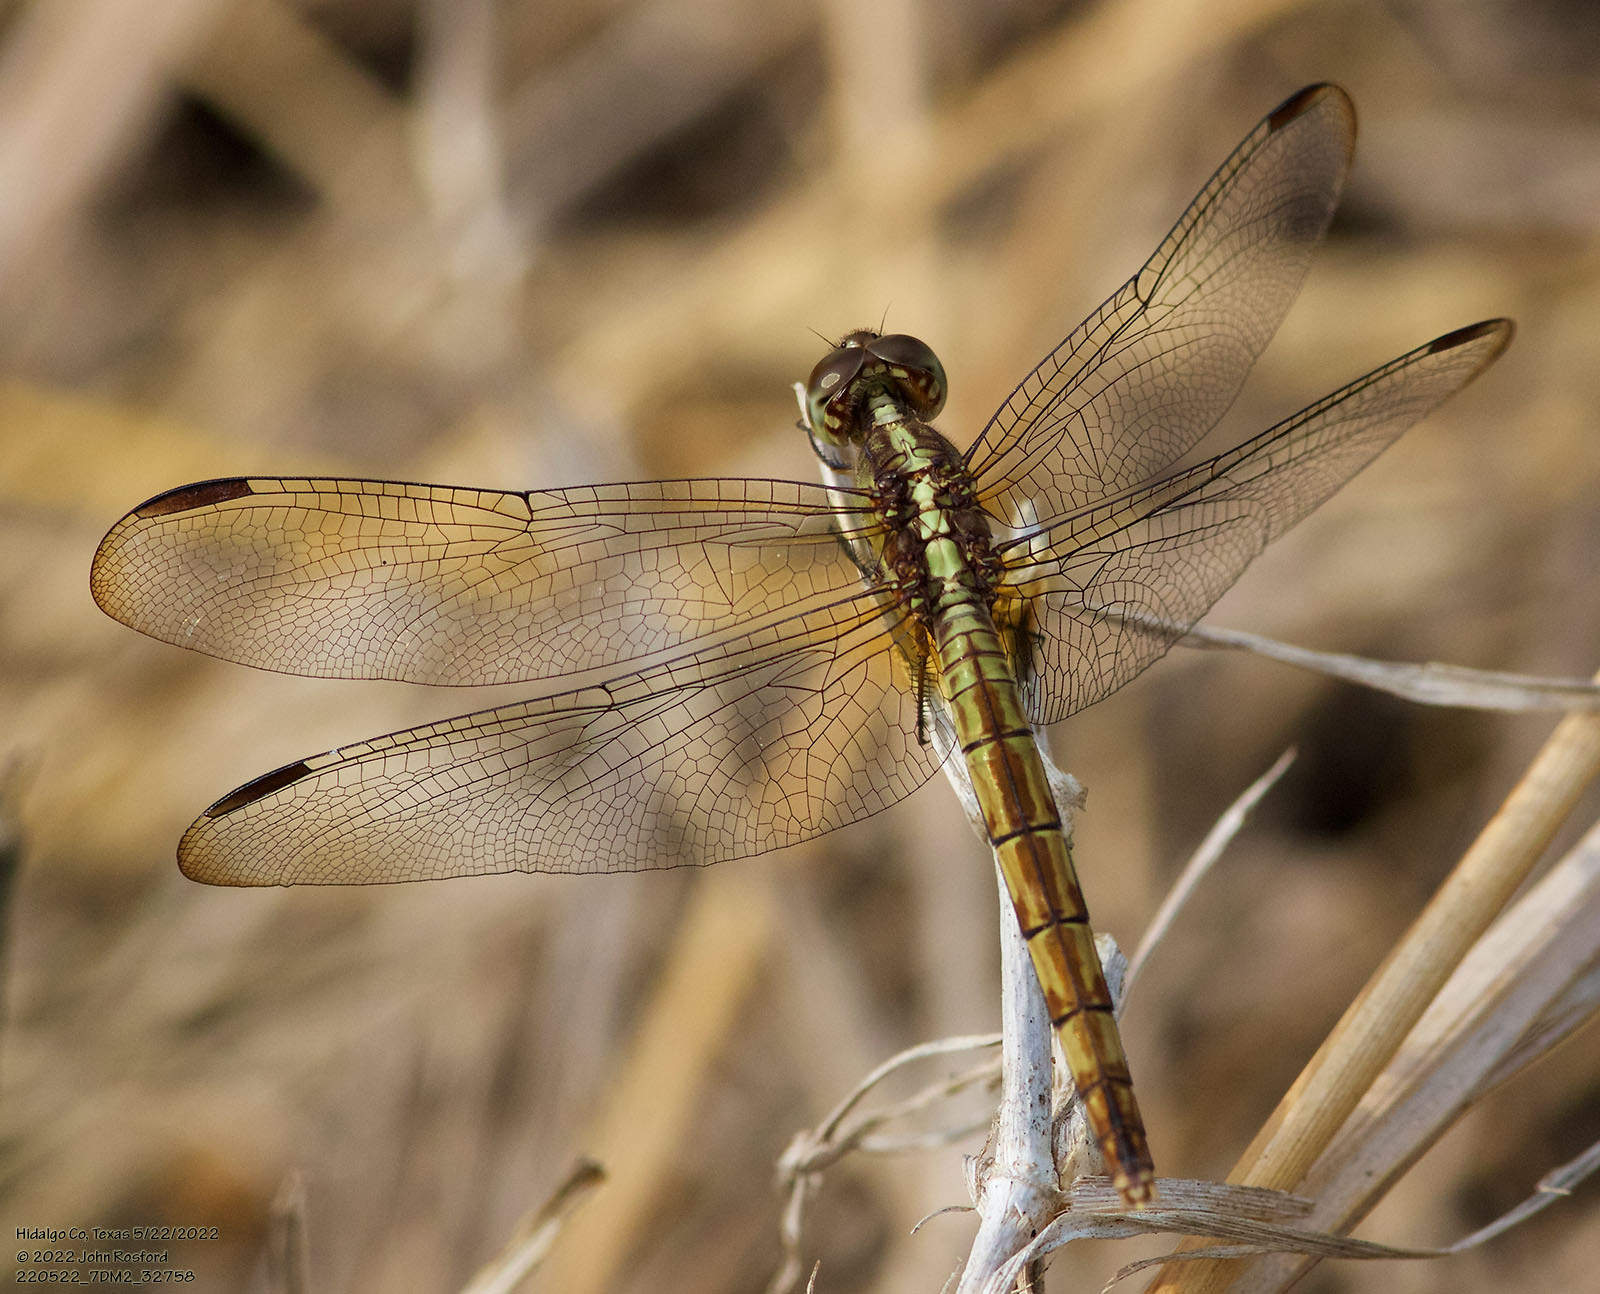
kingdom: Animalia
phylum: Arthropoda
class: Insecta
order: Odonata
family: Libellulidae
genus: Erythrodiplax
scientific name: Erythrodiplax umbrata
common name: Band-winged dragonlet
